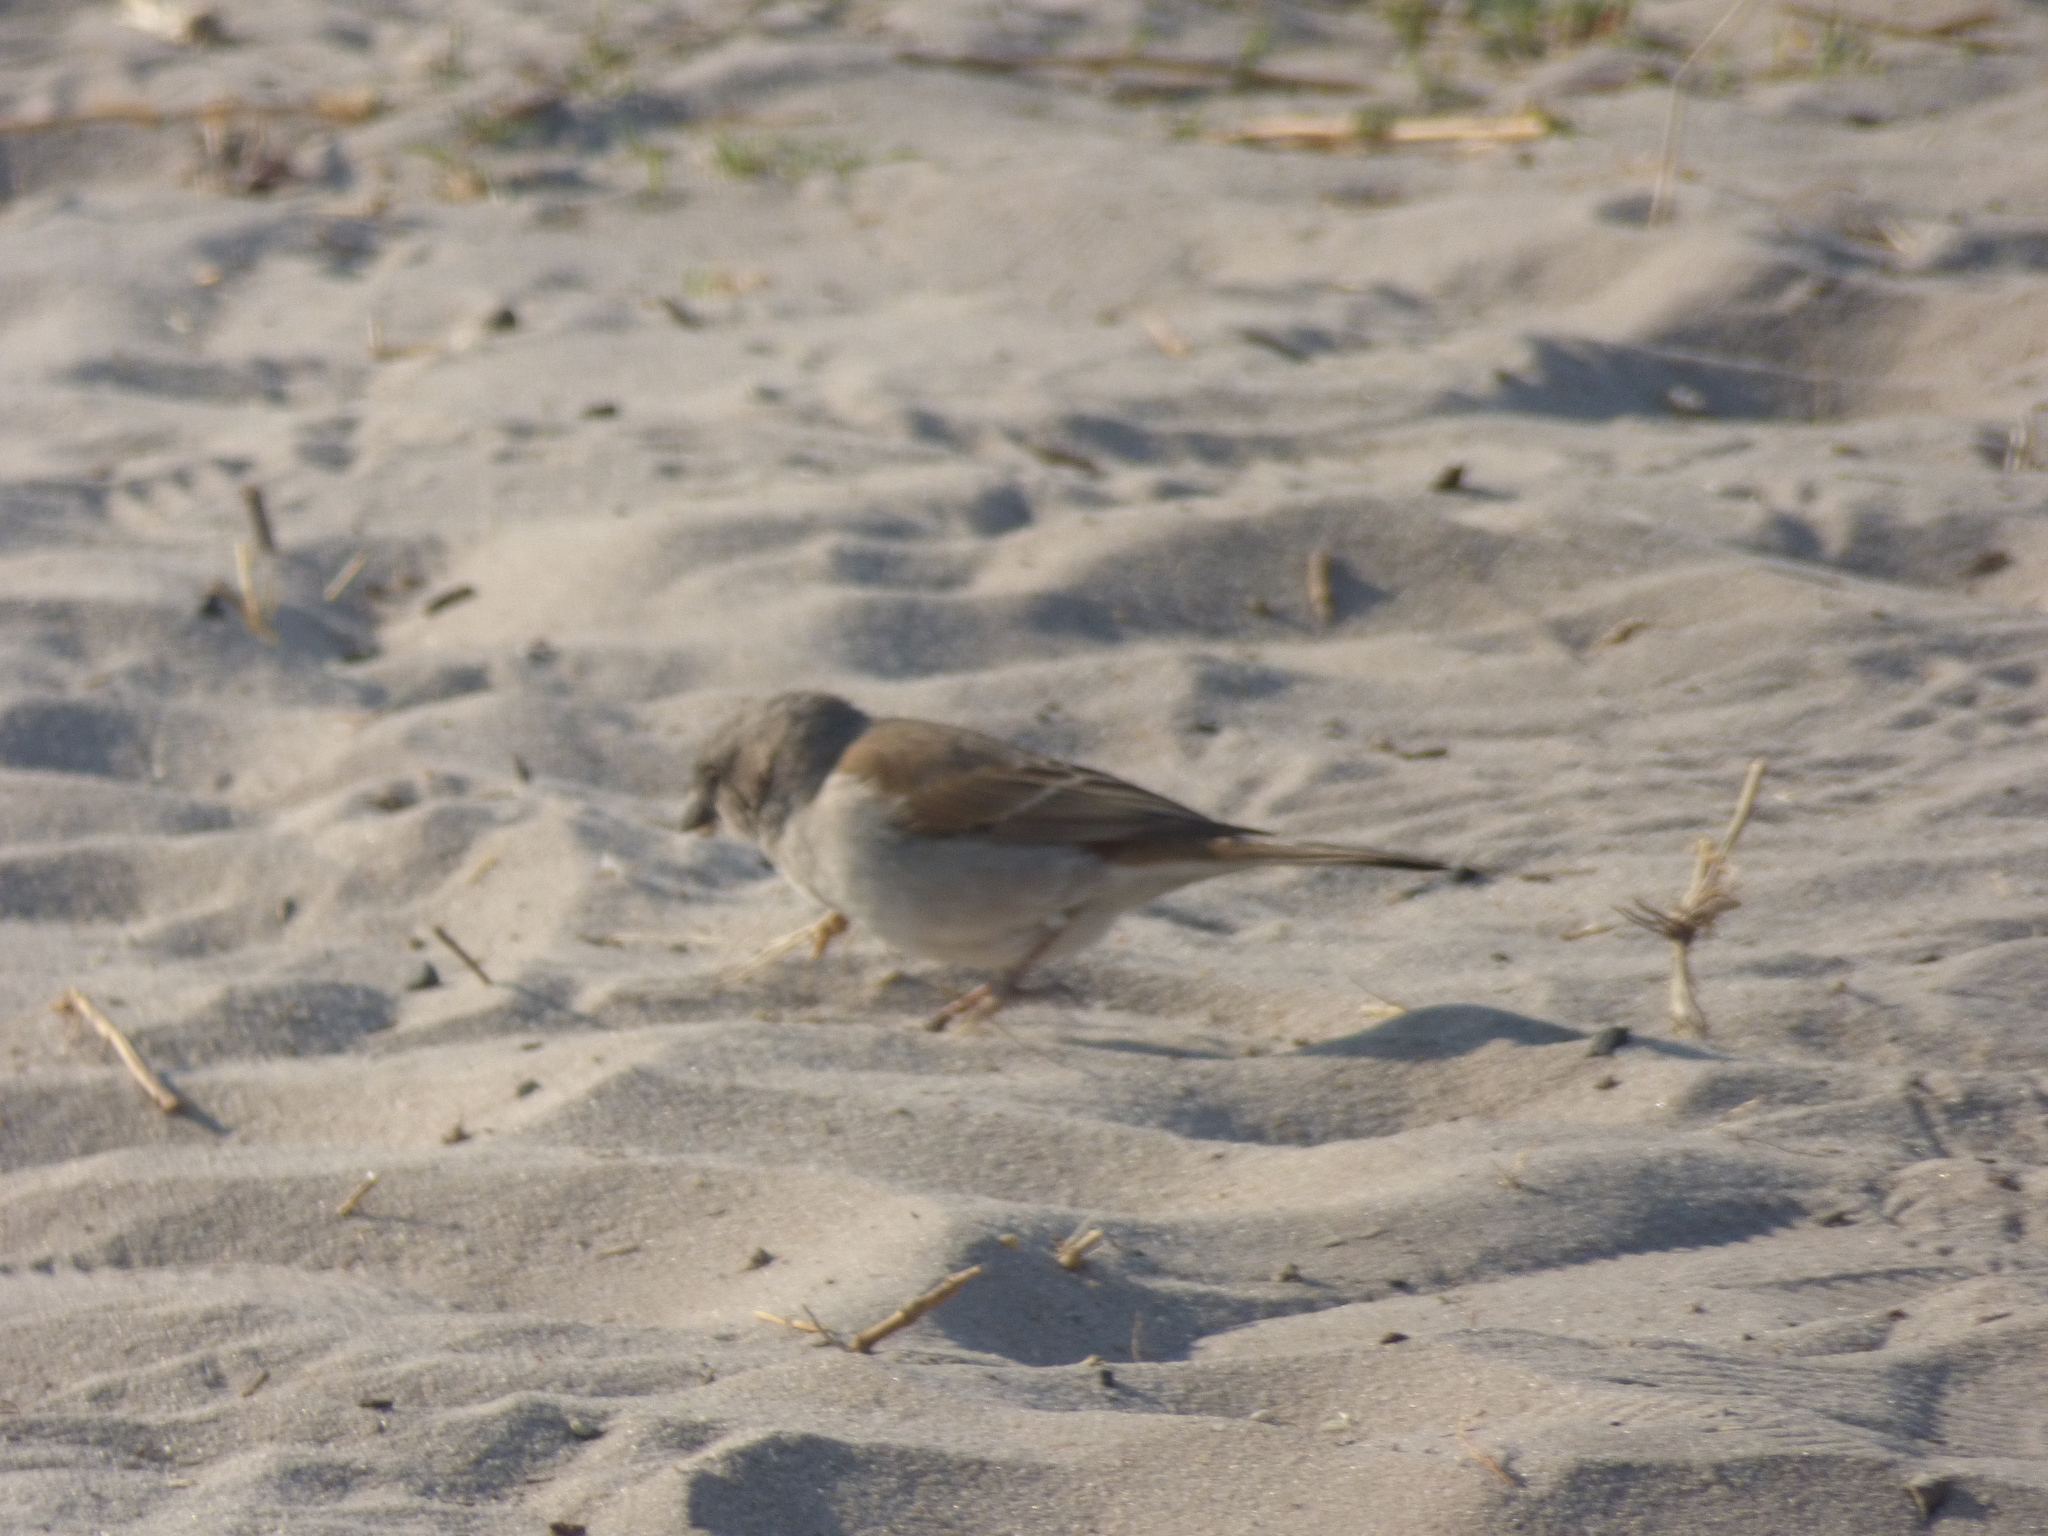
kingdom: Animalia
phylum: Chordata
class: Aves
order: Passeriformes
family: Passeridae
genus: Passer
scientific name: Passer diffusus
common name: Southern grey-headed sparrow
